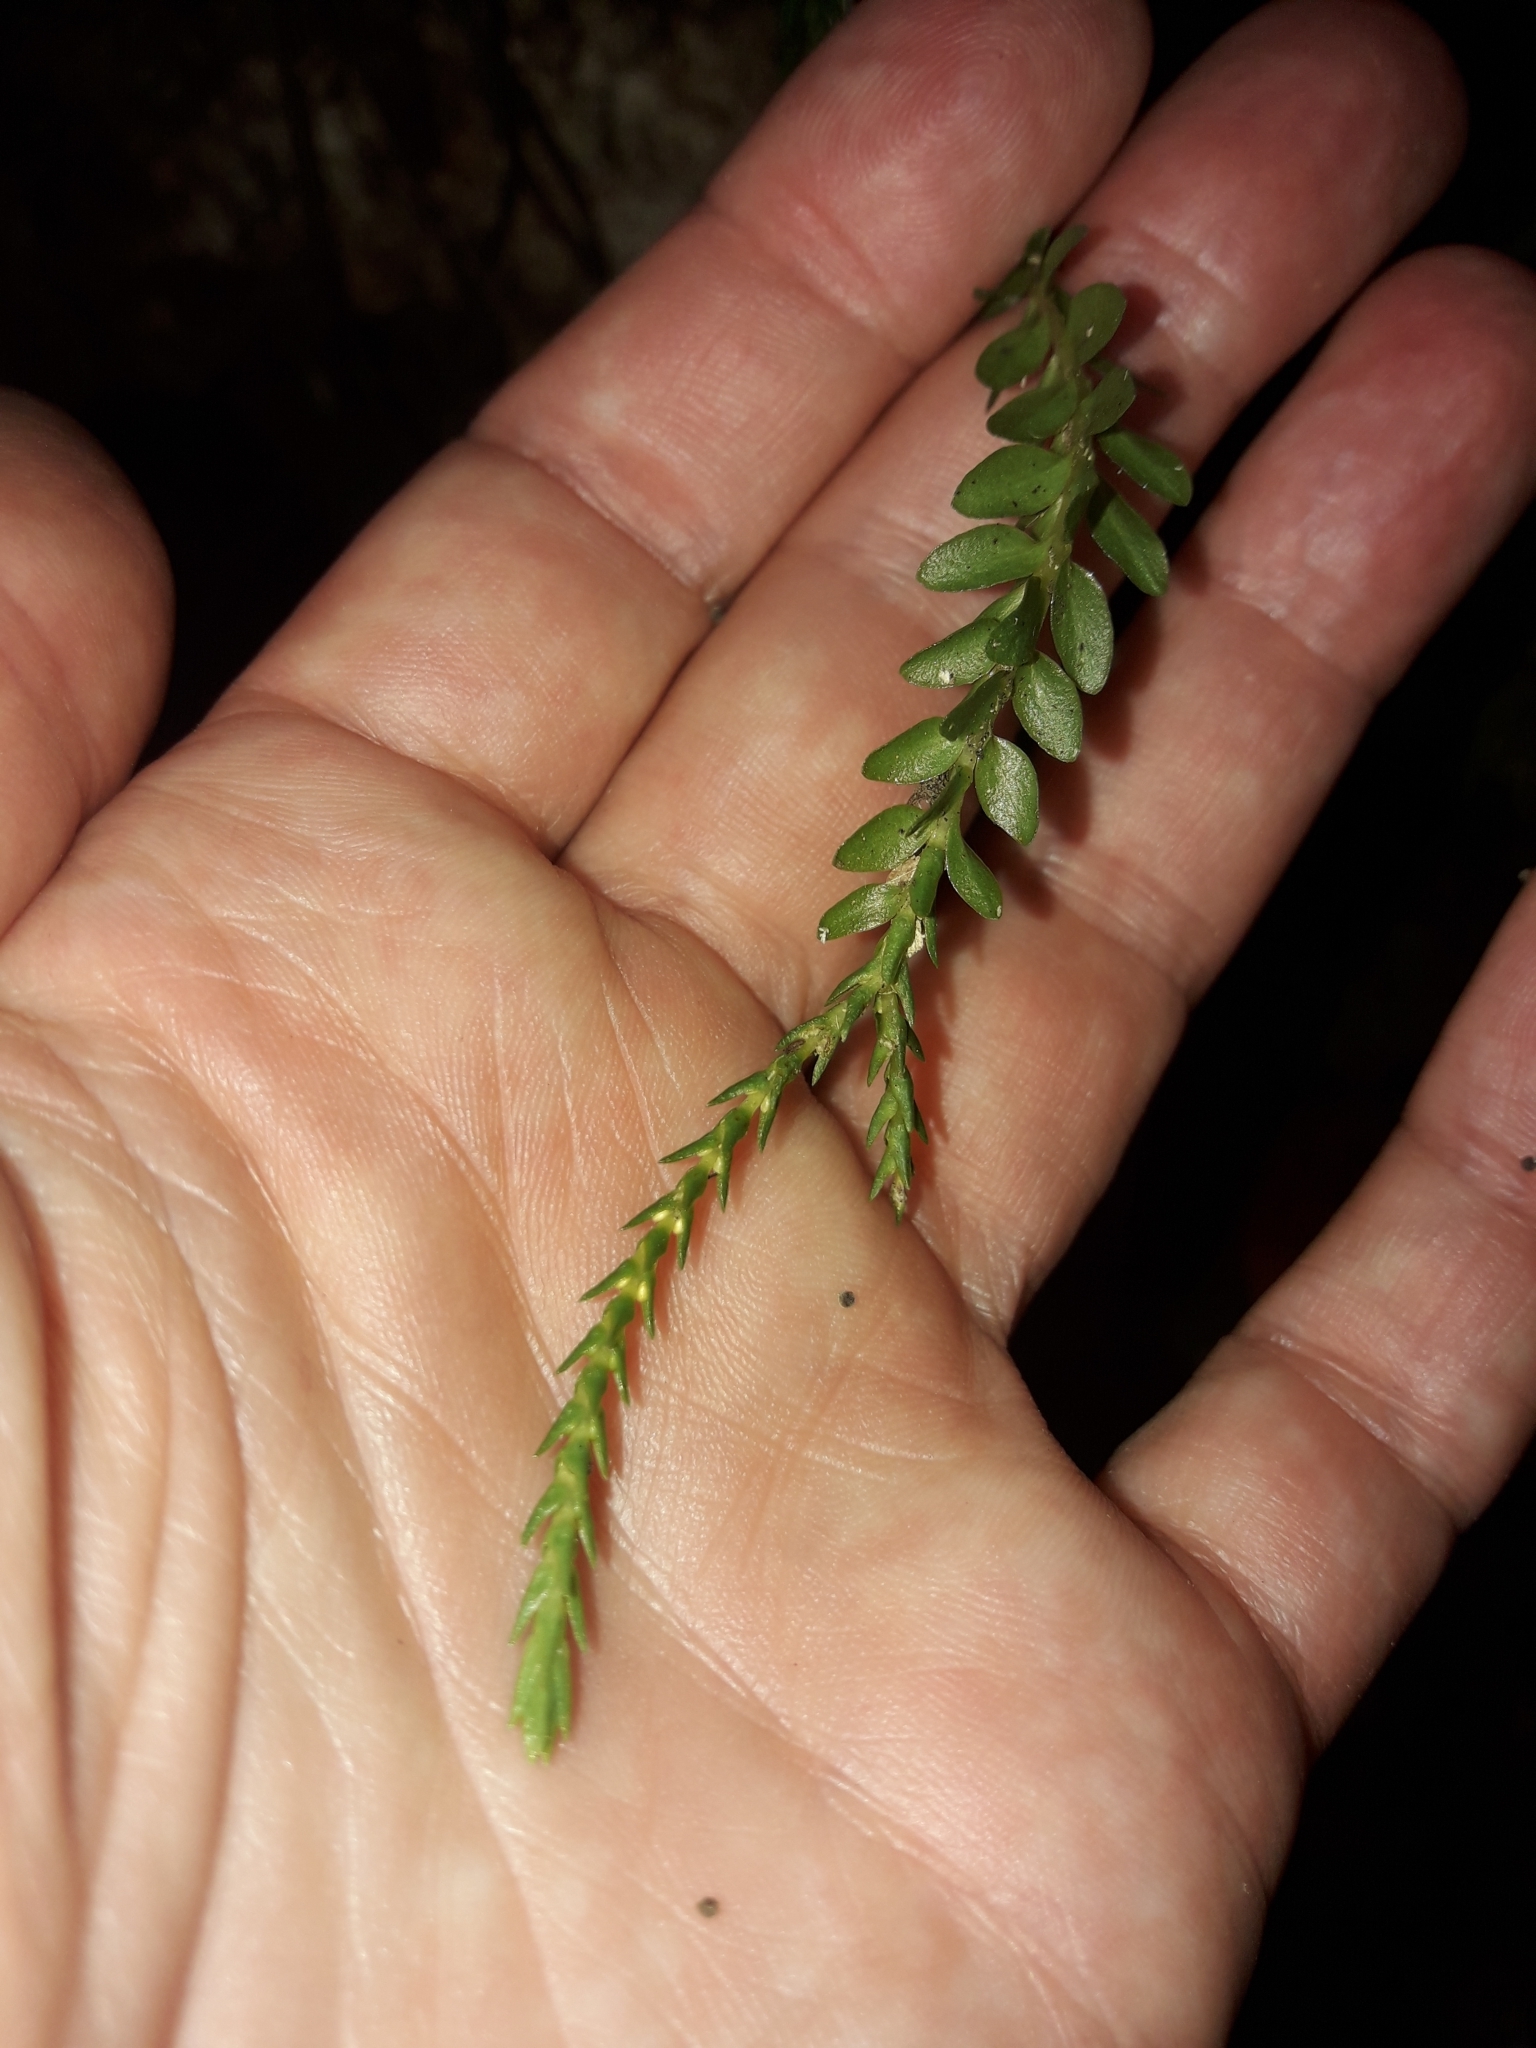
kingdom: Plantae
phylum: Tracheophyta
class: Lycopodiopsida
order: Lycopodiales
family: Lycopodiaceae
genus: Phlegmariurus
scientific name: Phlegmariurus delbrueckii
